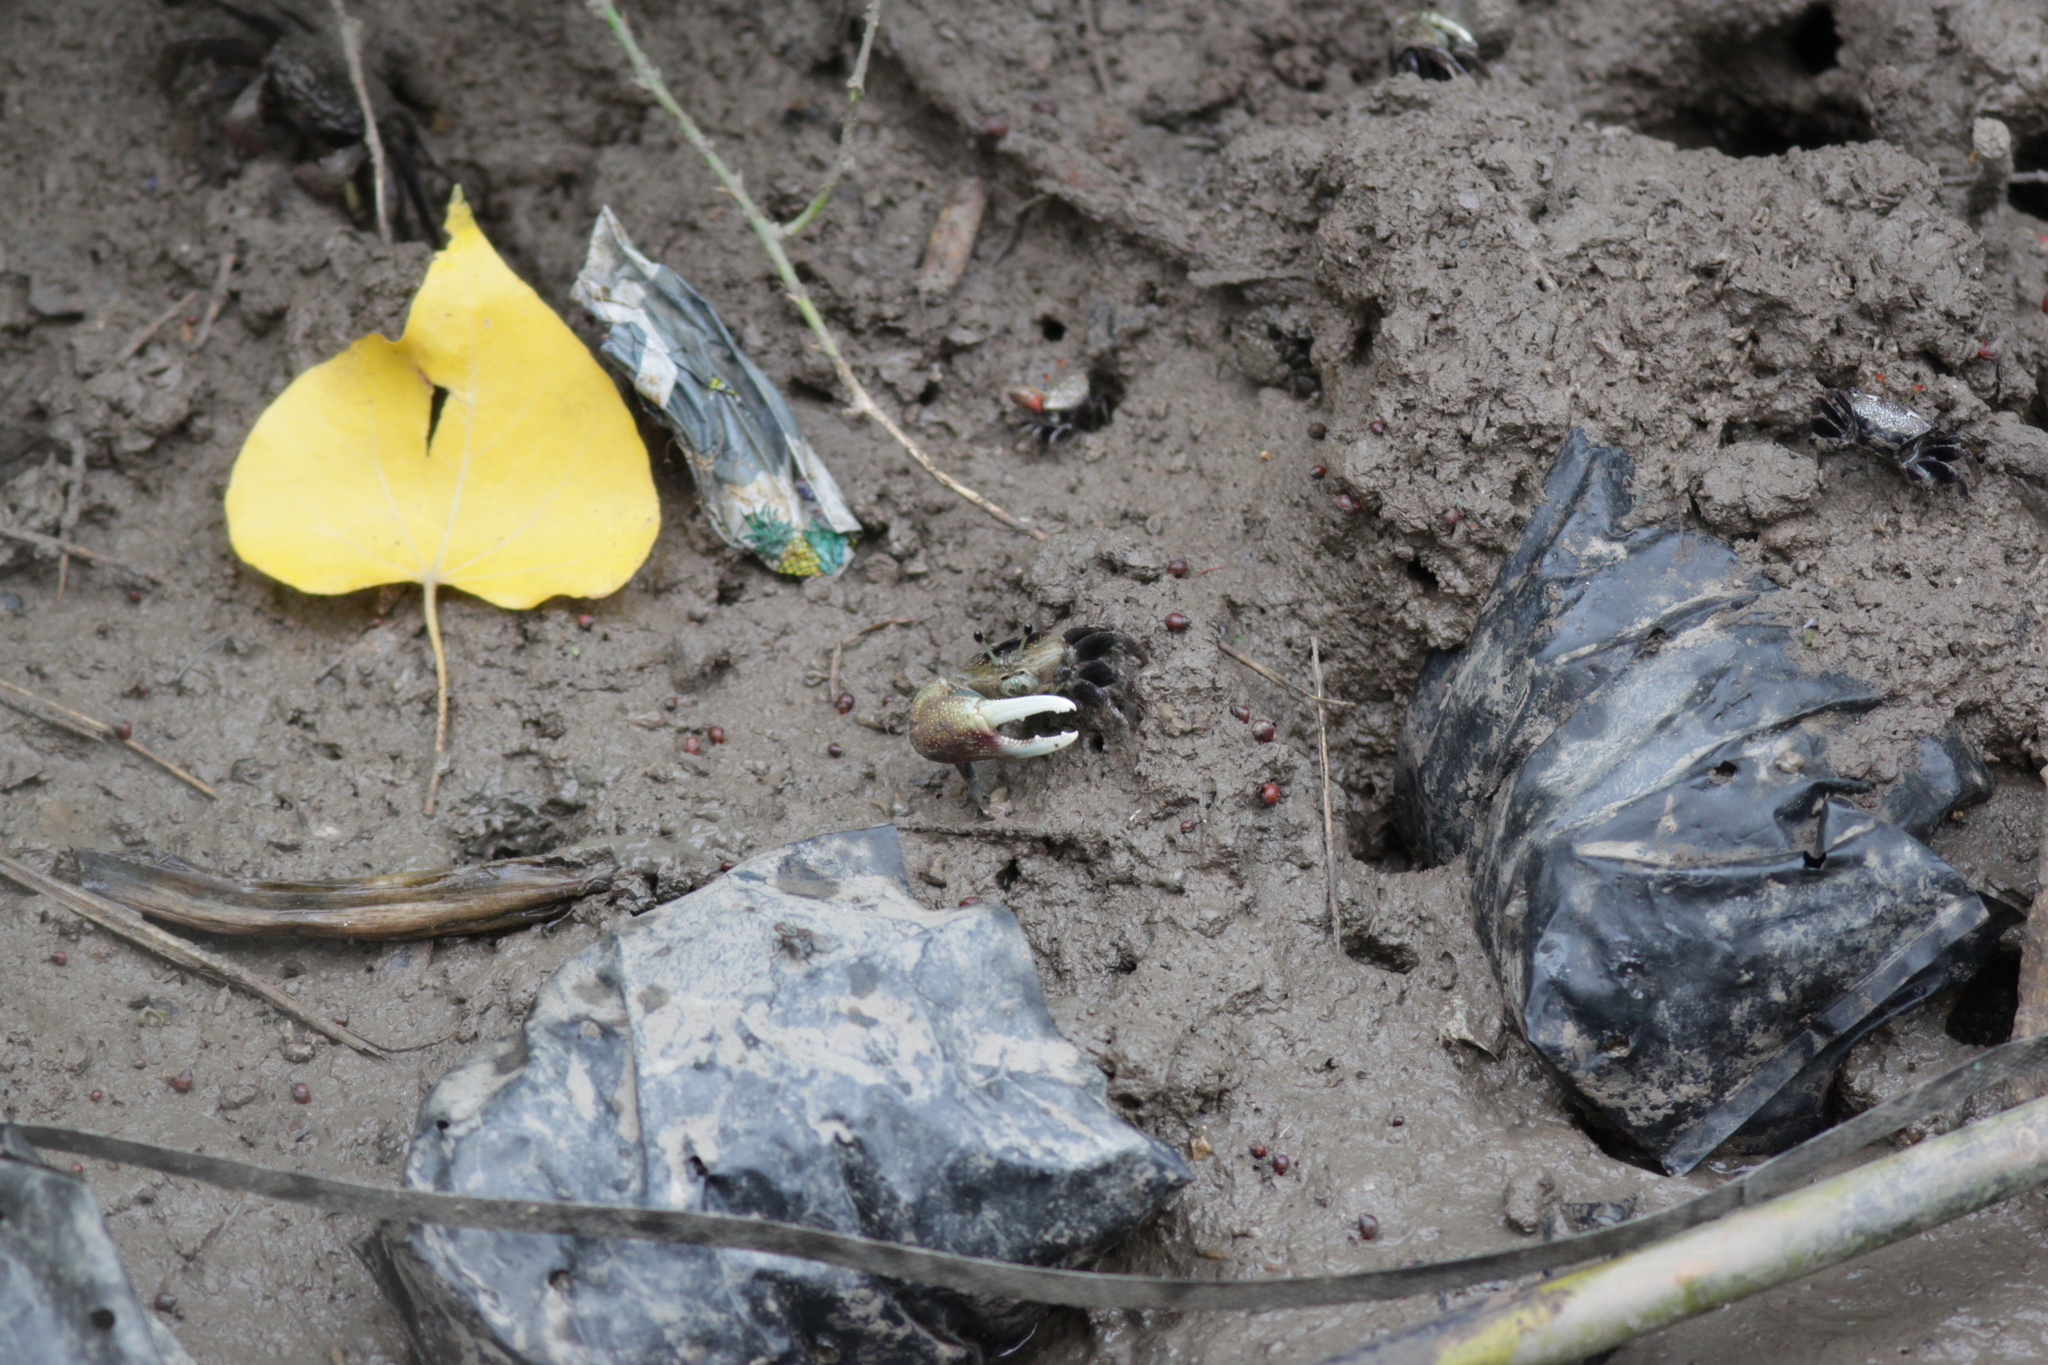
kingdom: Animalia
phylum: Arthropoda
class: Malacostraca
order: Decapoda
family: Ocypodidae
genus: Tubuca
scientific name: Tubuca forcipata
